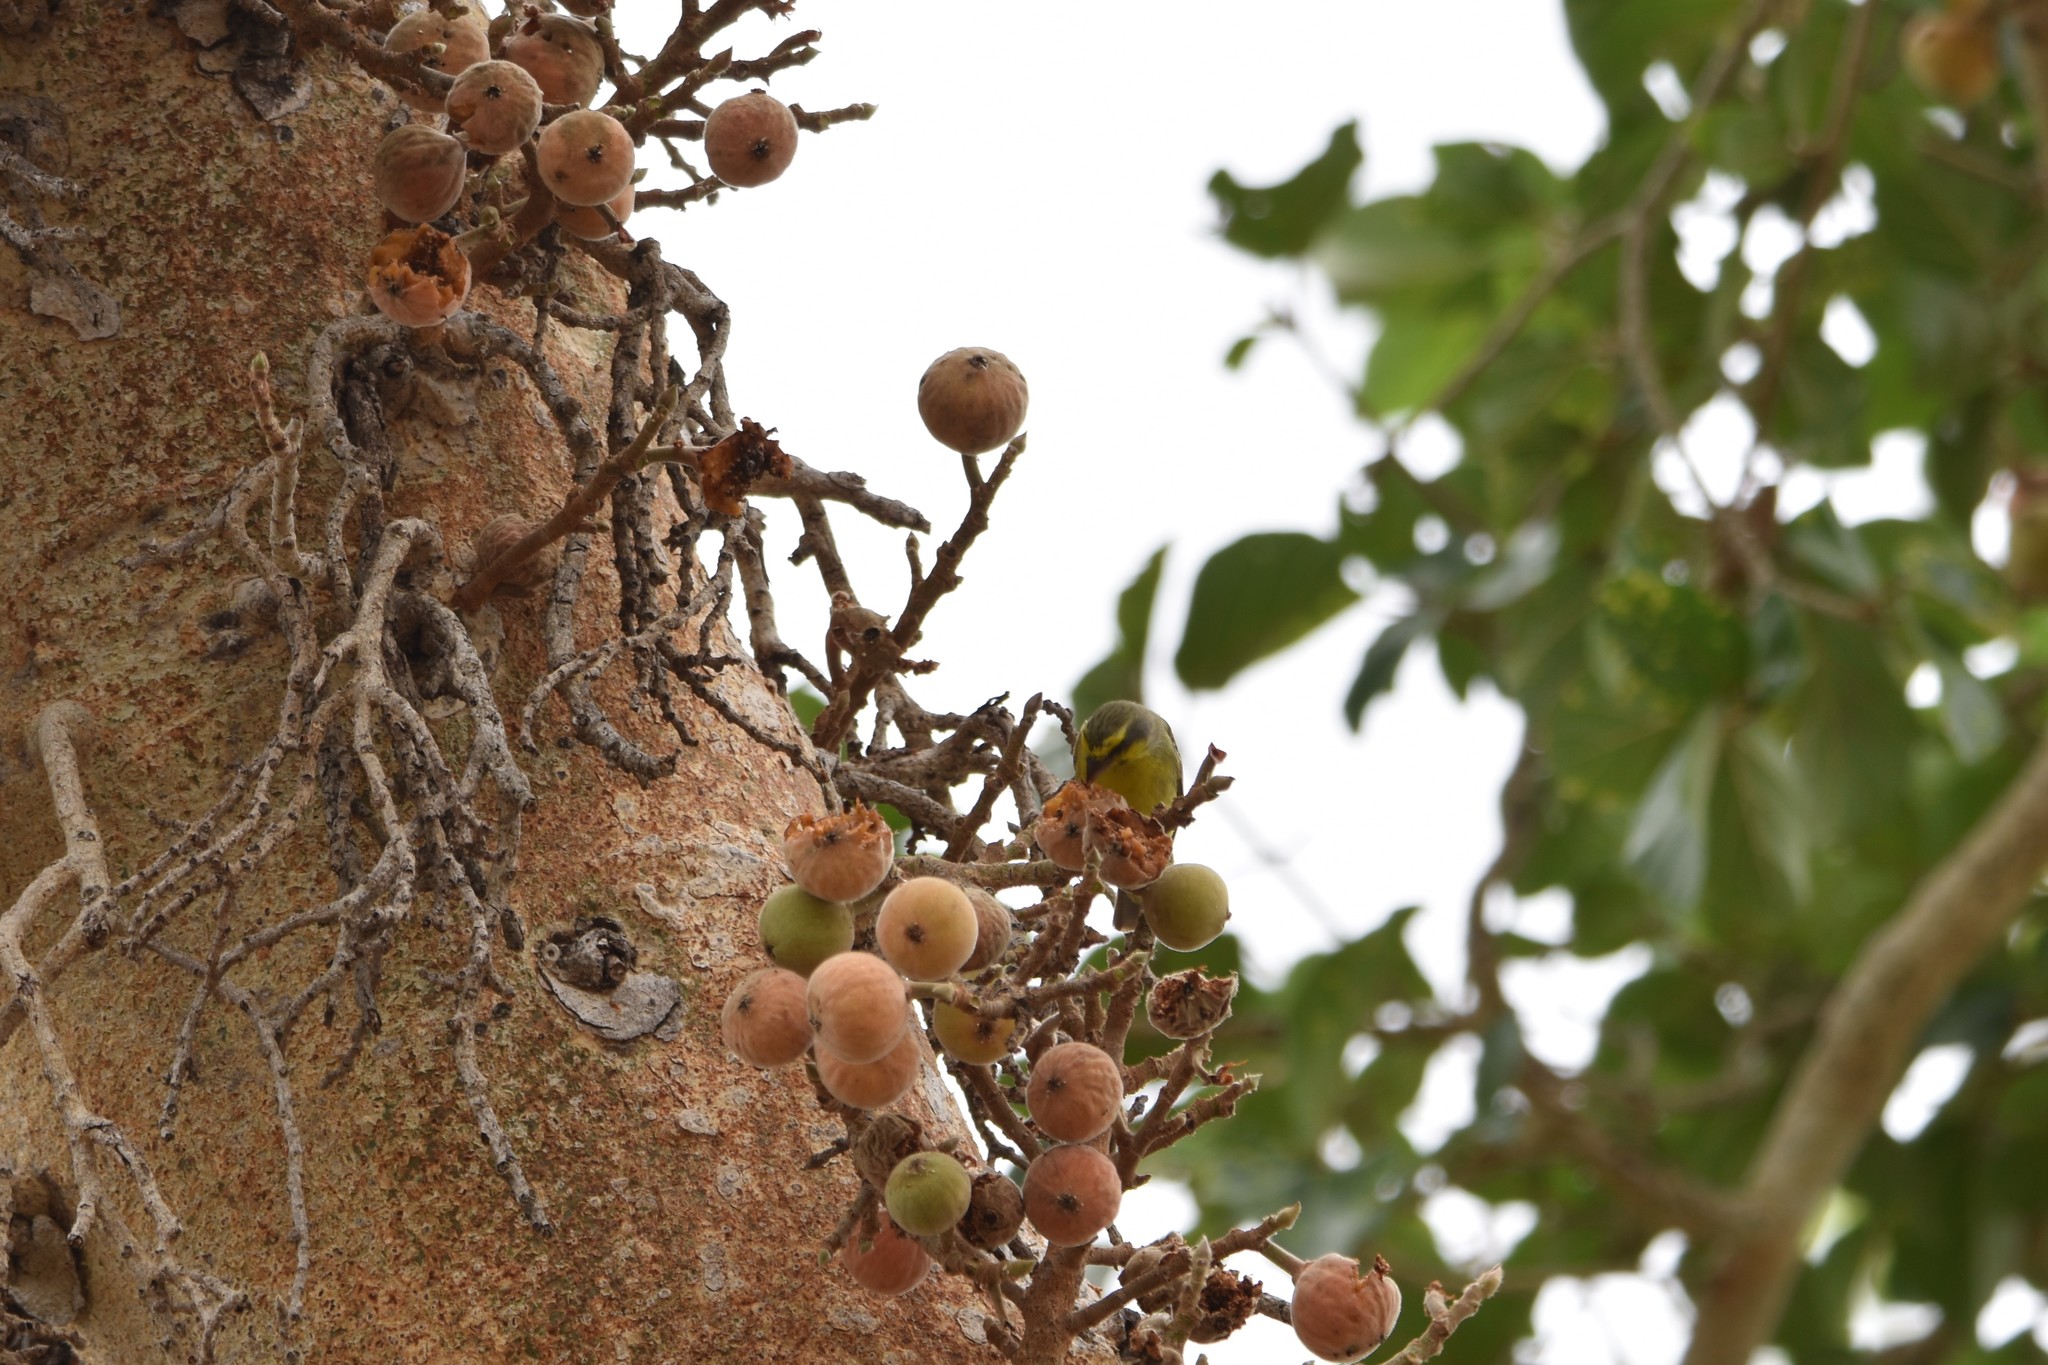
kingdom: Animalia
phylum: Chordata
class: Aves
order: Passeriformes
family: Fringillidae
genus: Crithagra
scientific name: Crithagra mozambica
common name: Yellow-fronted canary
